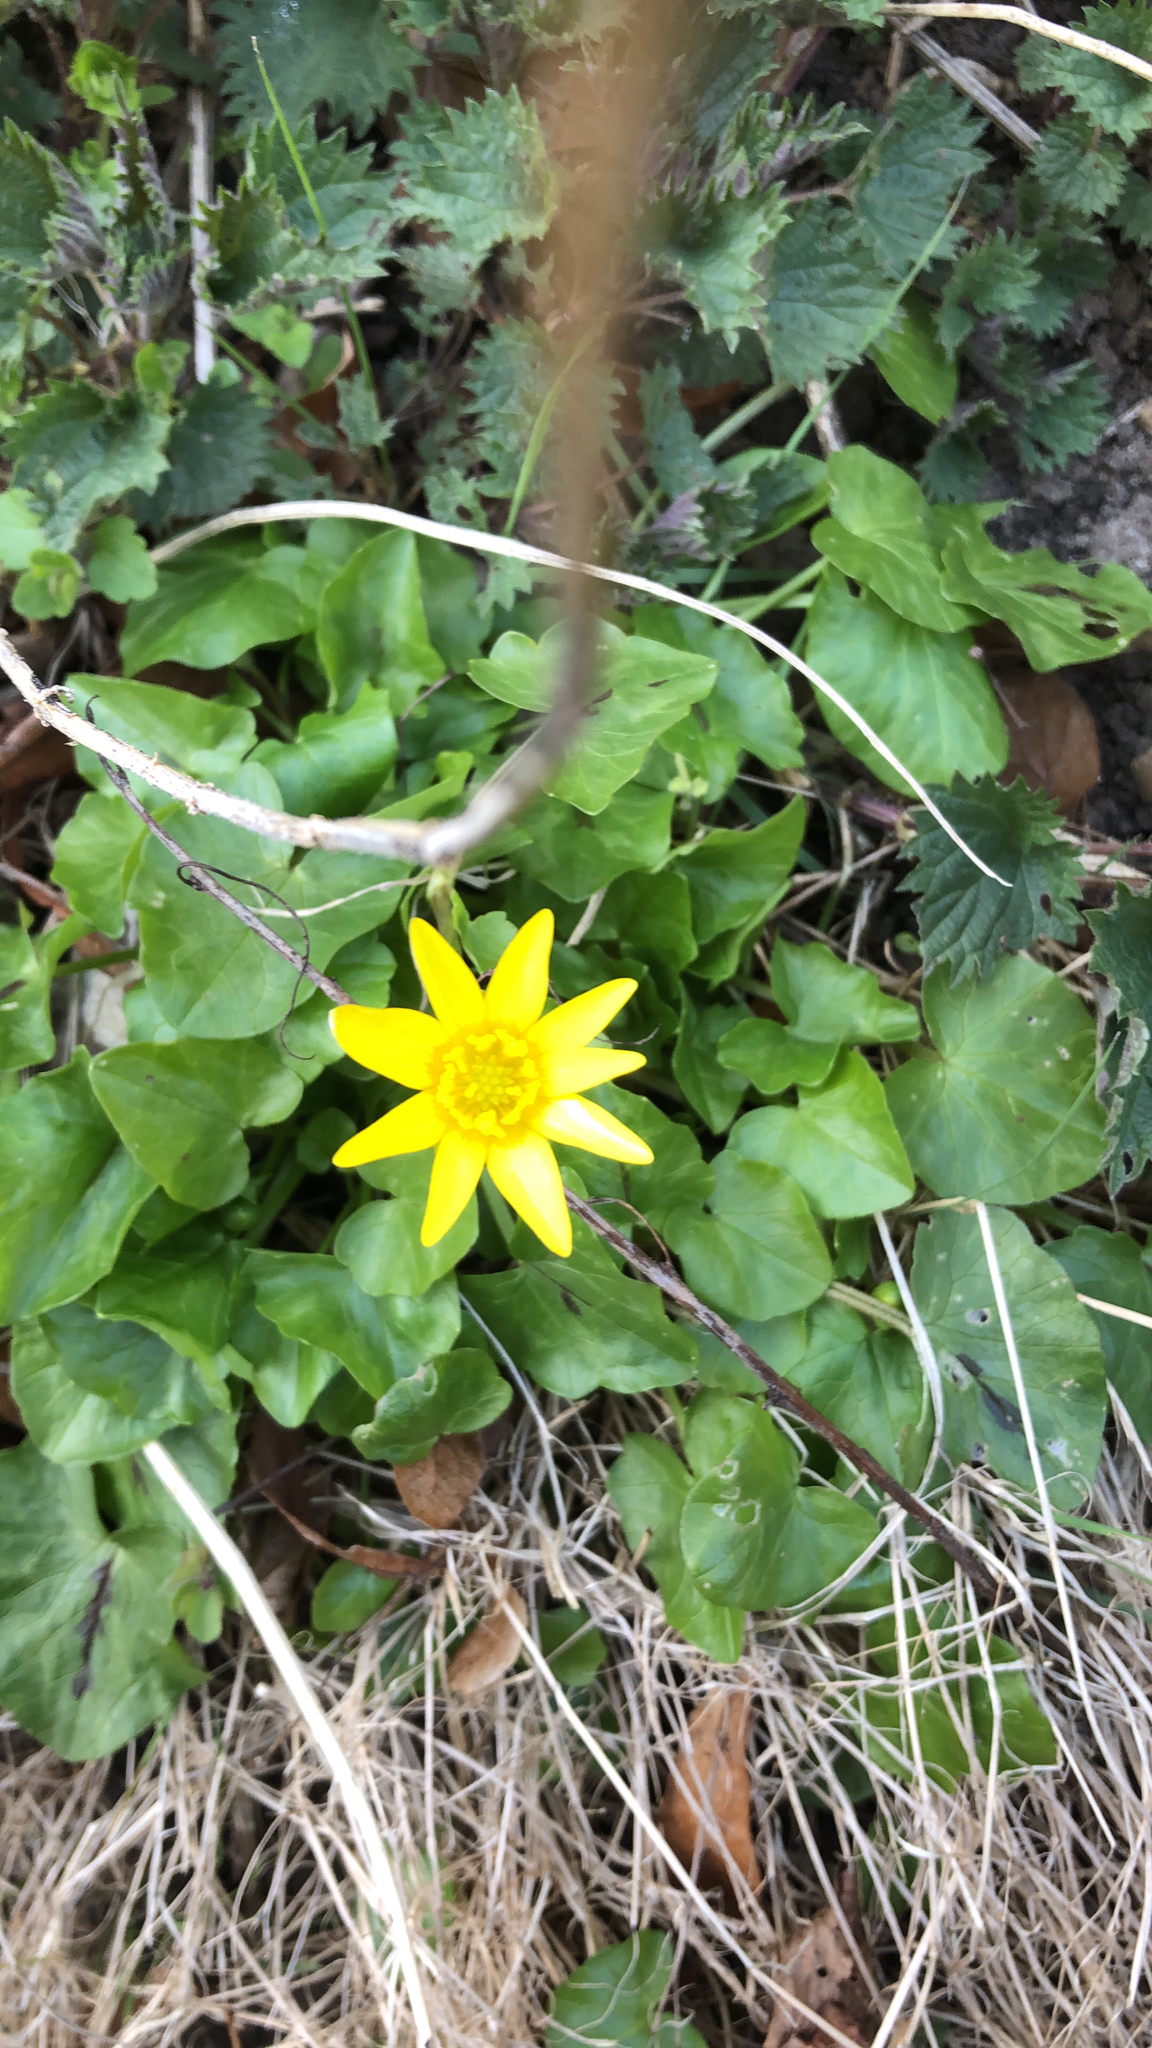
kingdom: Plantae
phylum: Tracheophyta
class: Magnoliopsida
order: Ranunculales
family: Ranunculaceae
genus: Ficaria
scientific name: Ficaria verna
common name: Lesser celandine
